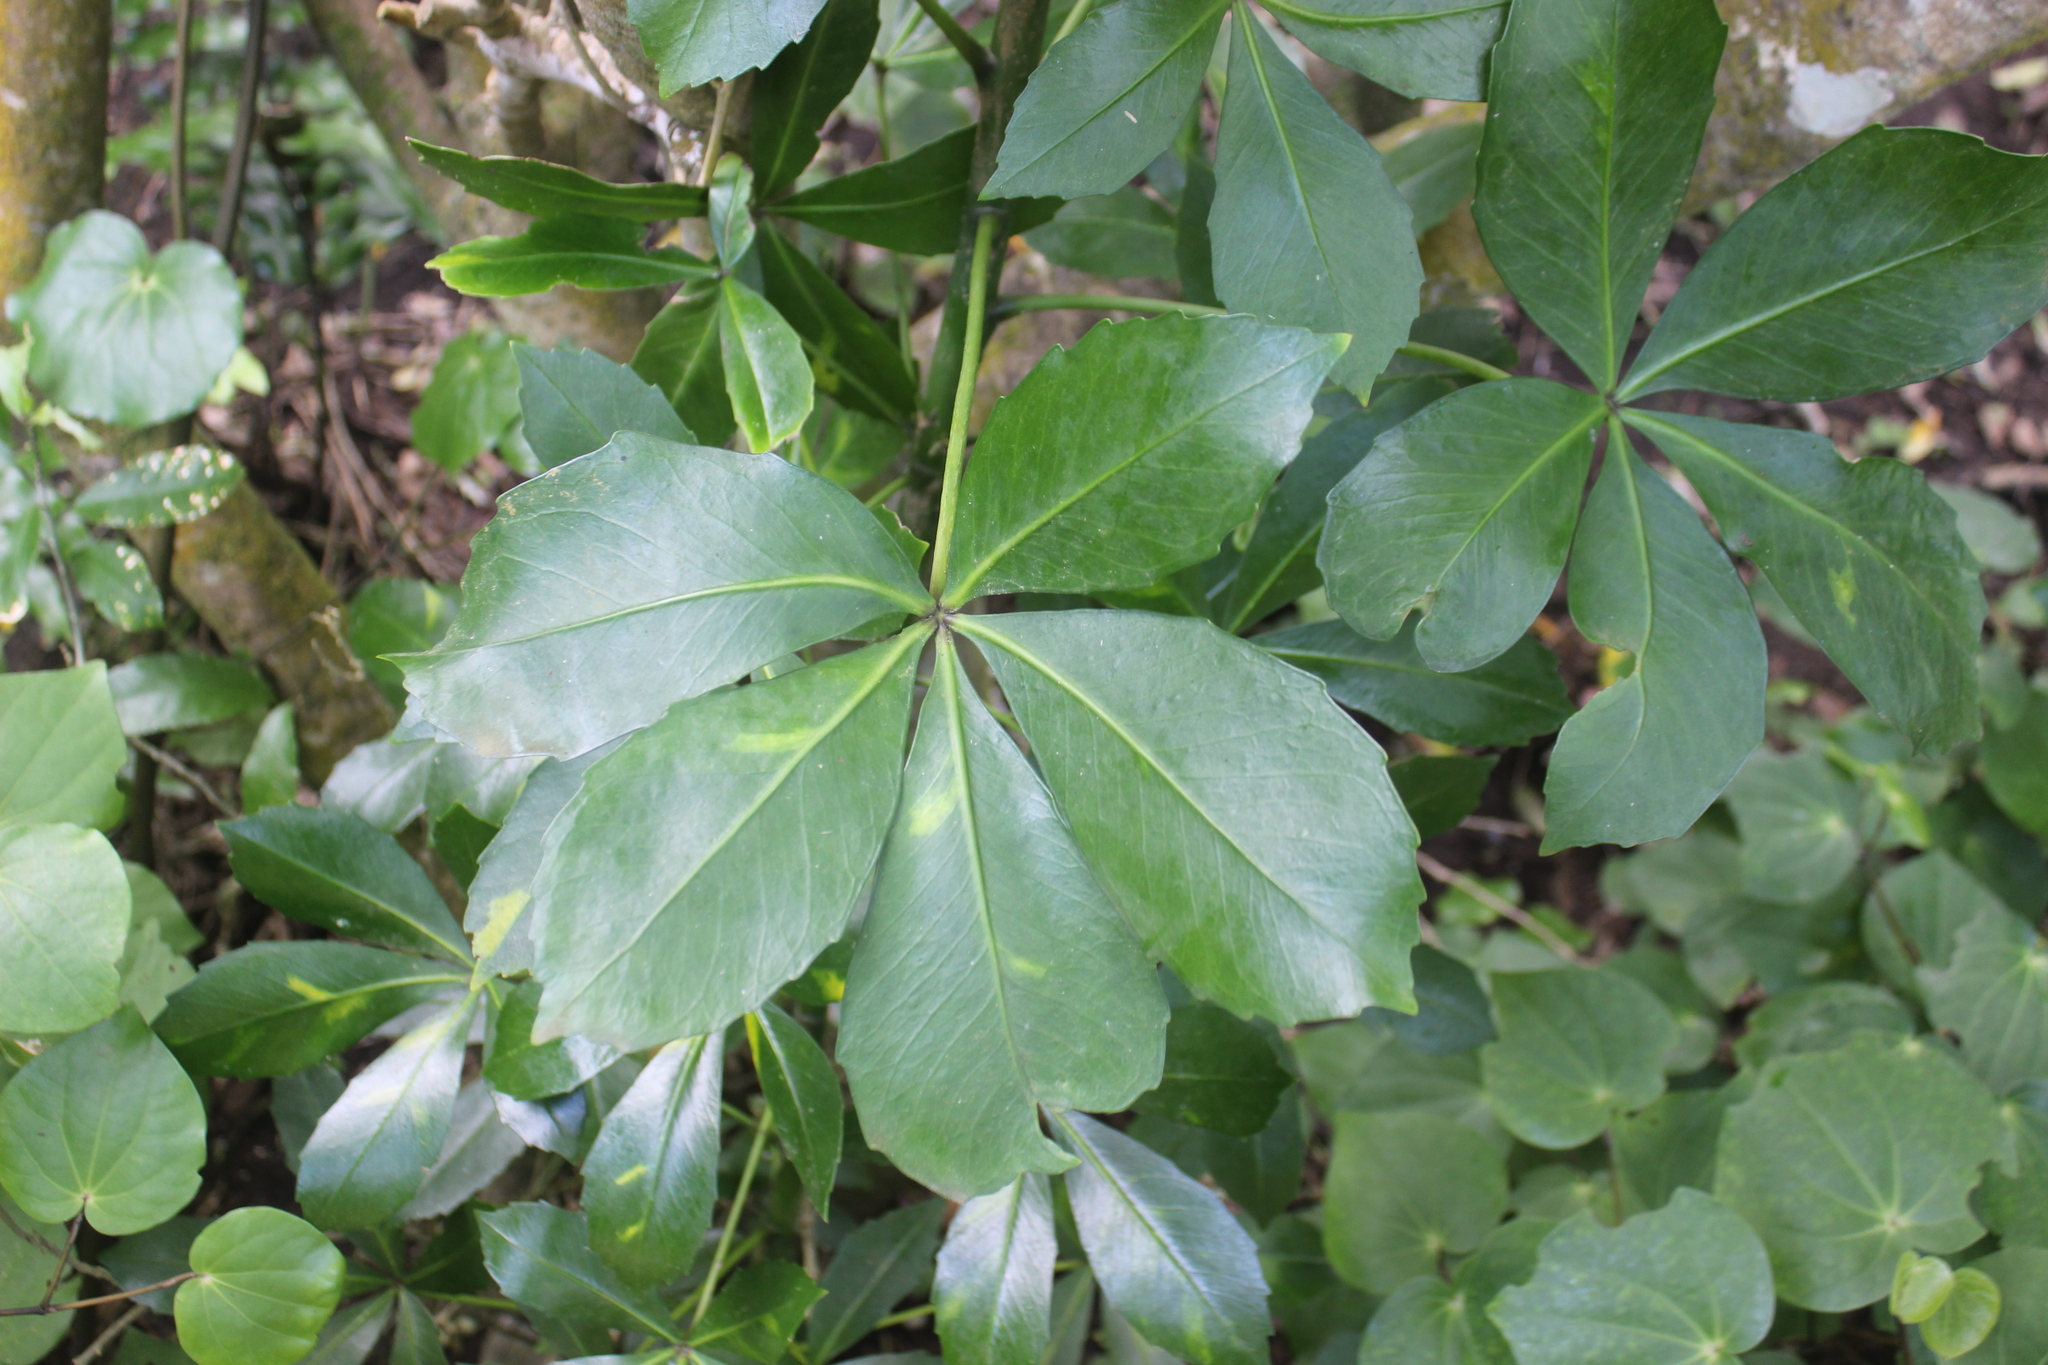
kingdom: Plantae
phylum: Tracheophyta
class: Magnoliopsida
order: Apiales
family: Araliaceae
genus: Pseudopanax
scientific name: Pseudopanax lessonii
